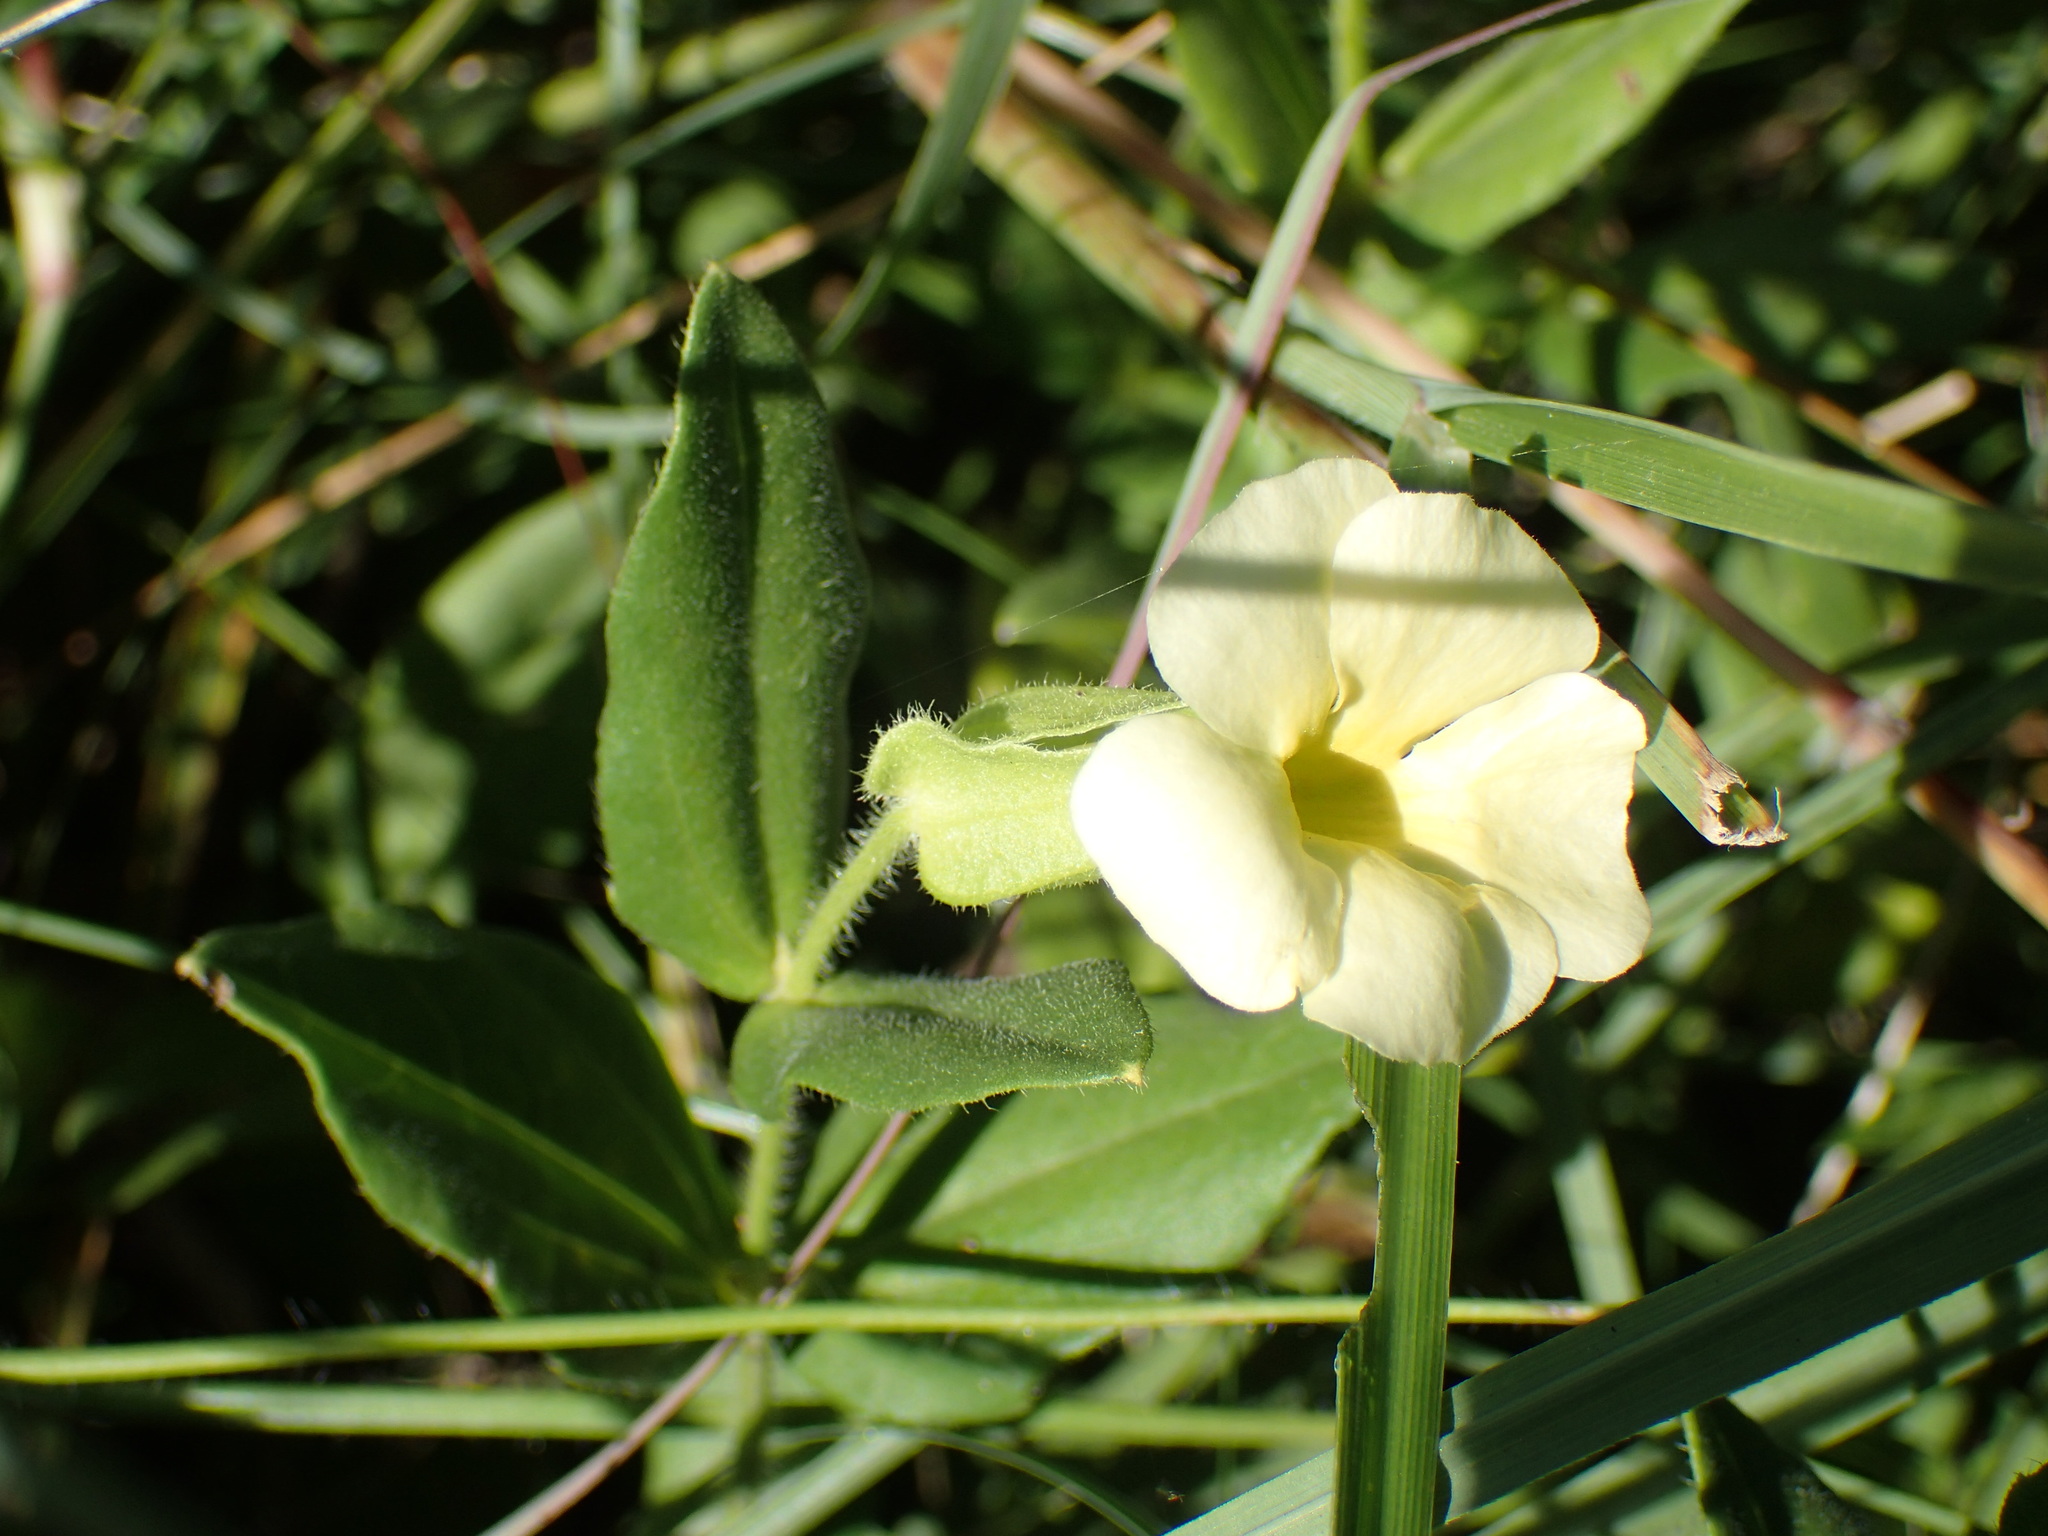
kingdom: Plantae
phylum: Tracheophyta
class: Magnoliopsida
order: Lamiales
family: Acanthaceae
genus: Thunbergia
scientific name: Thunbergia atriplicifolia
